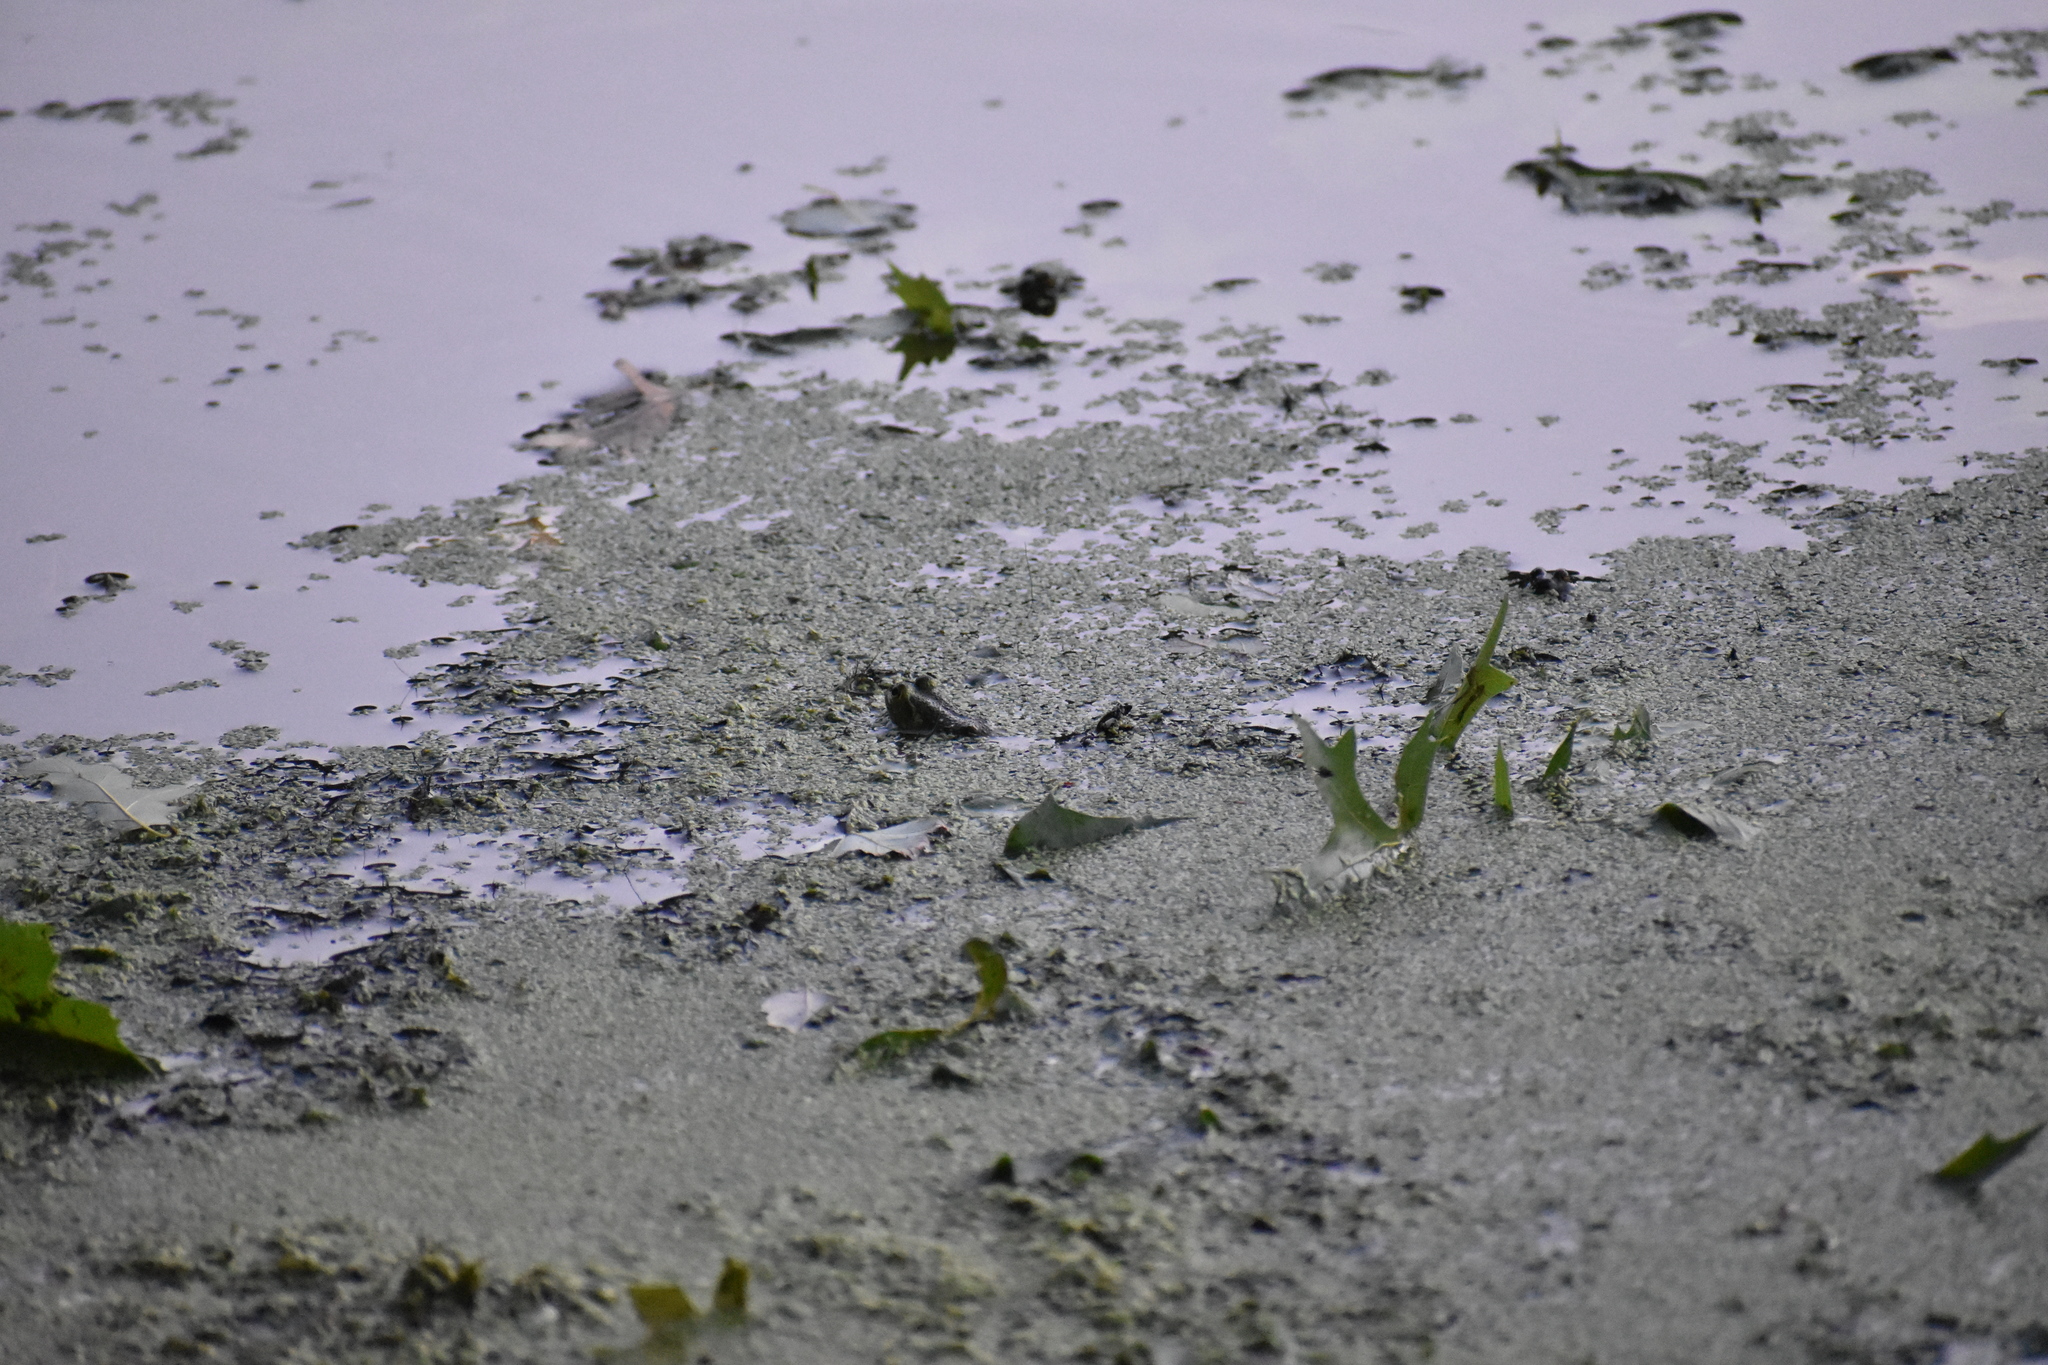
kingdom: Animalia
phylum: Chordata
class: Amphibia
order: Anura
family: Ranidae
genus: Lithobates
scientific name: Lithobates catesbeianus
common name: American bullfrog
